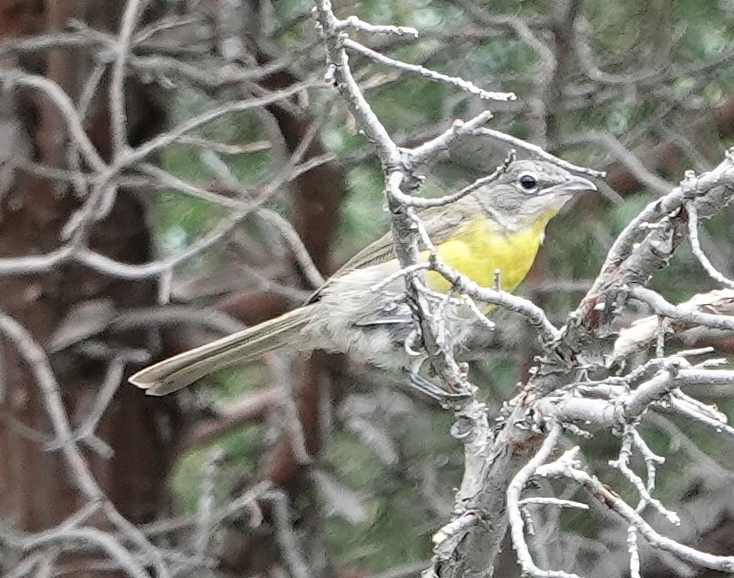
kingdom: Animalia
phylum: Chordata
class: Aves
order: Passeriformes
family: Parulidae
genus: Icteria
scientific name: Icteria virens
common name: Yellow-breasted chat
